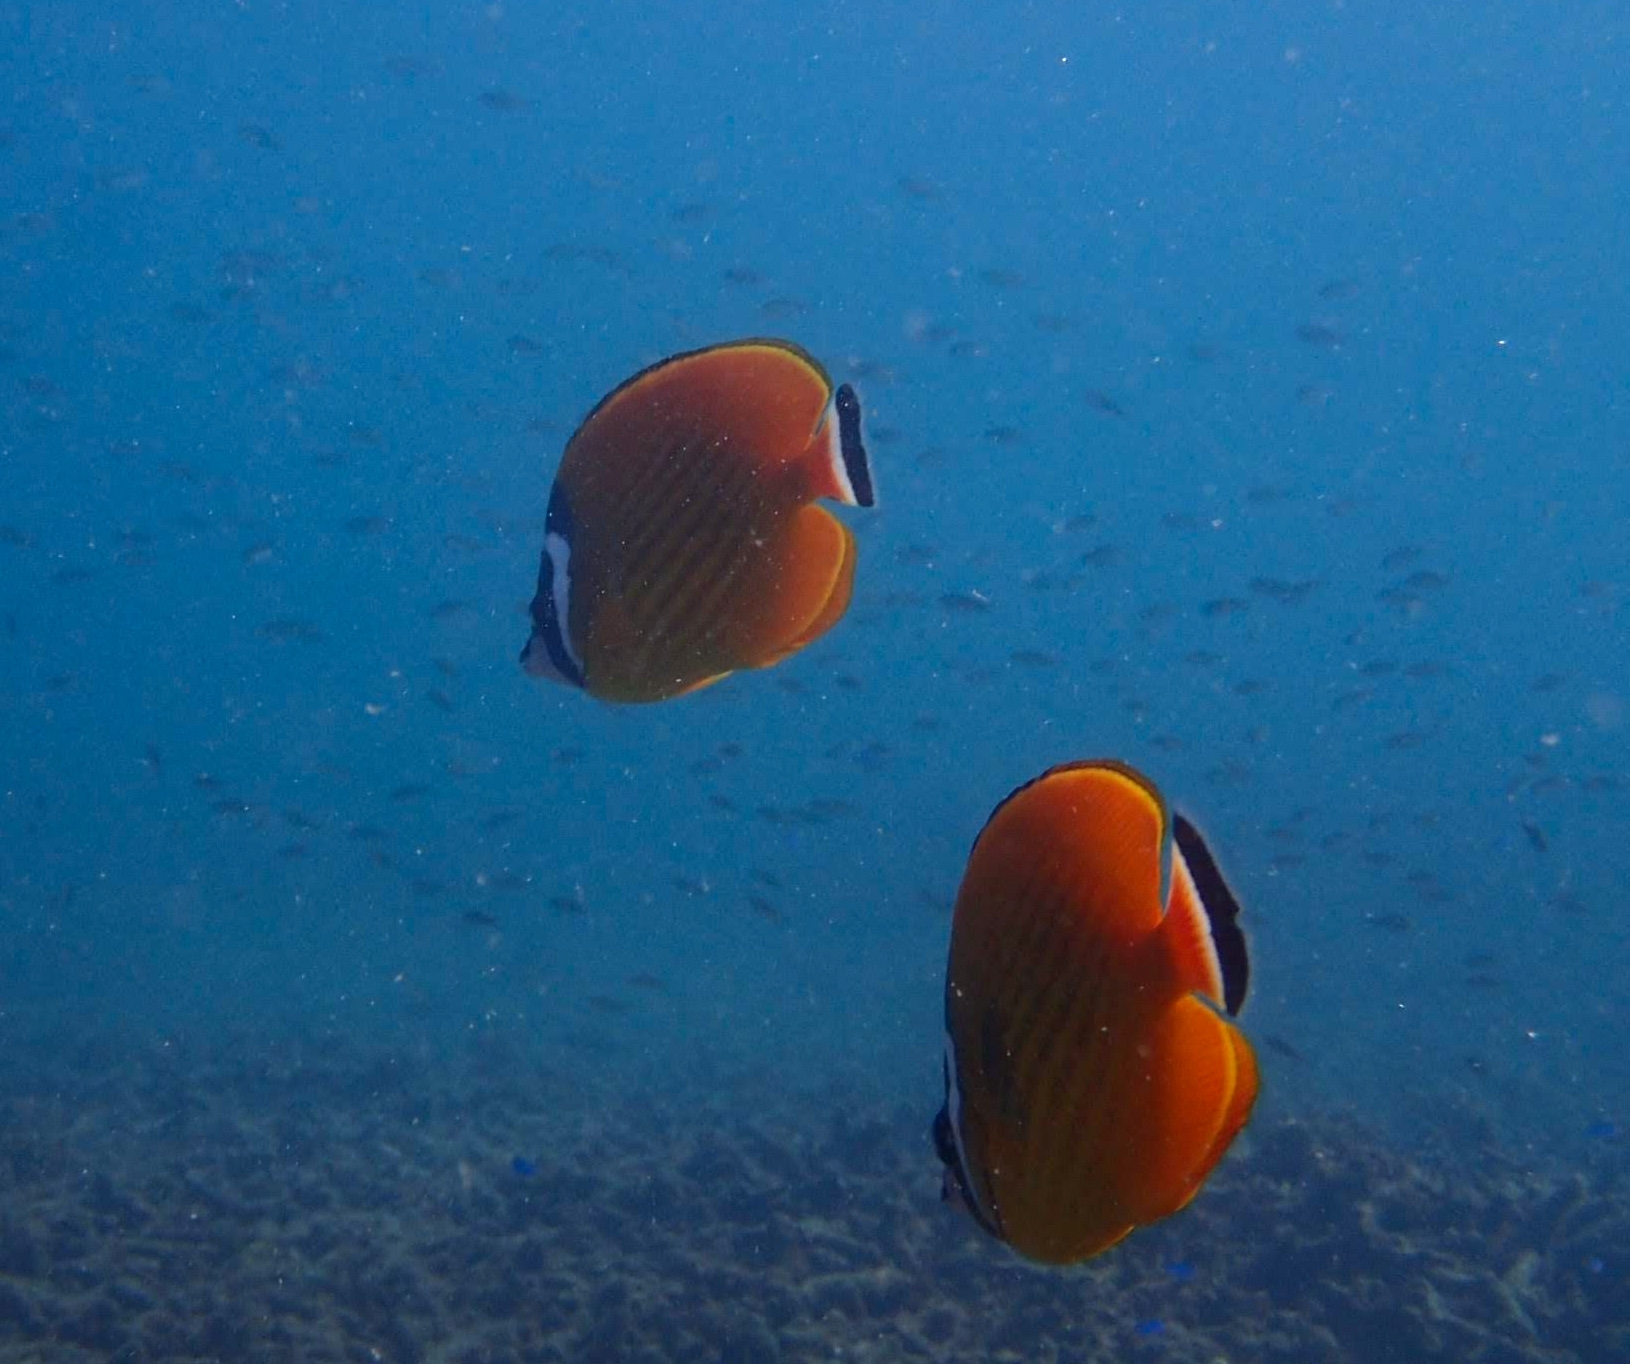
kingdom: Animalia
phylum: Chordata
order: Perciformes
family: Chaetodontidae
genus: Chaetodon
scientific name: Chaetodon wiebeli
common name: Butterflyfish
